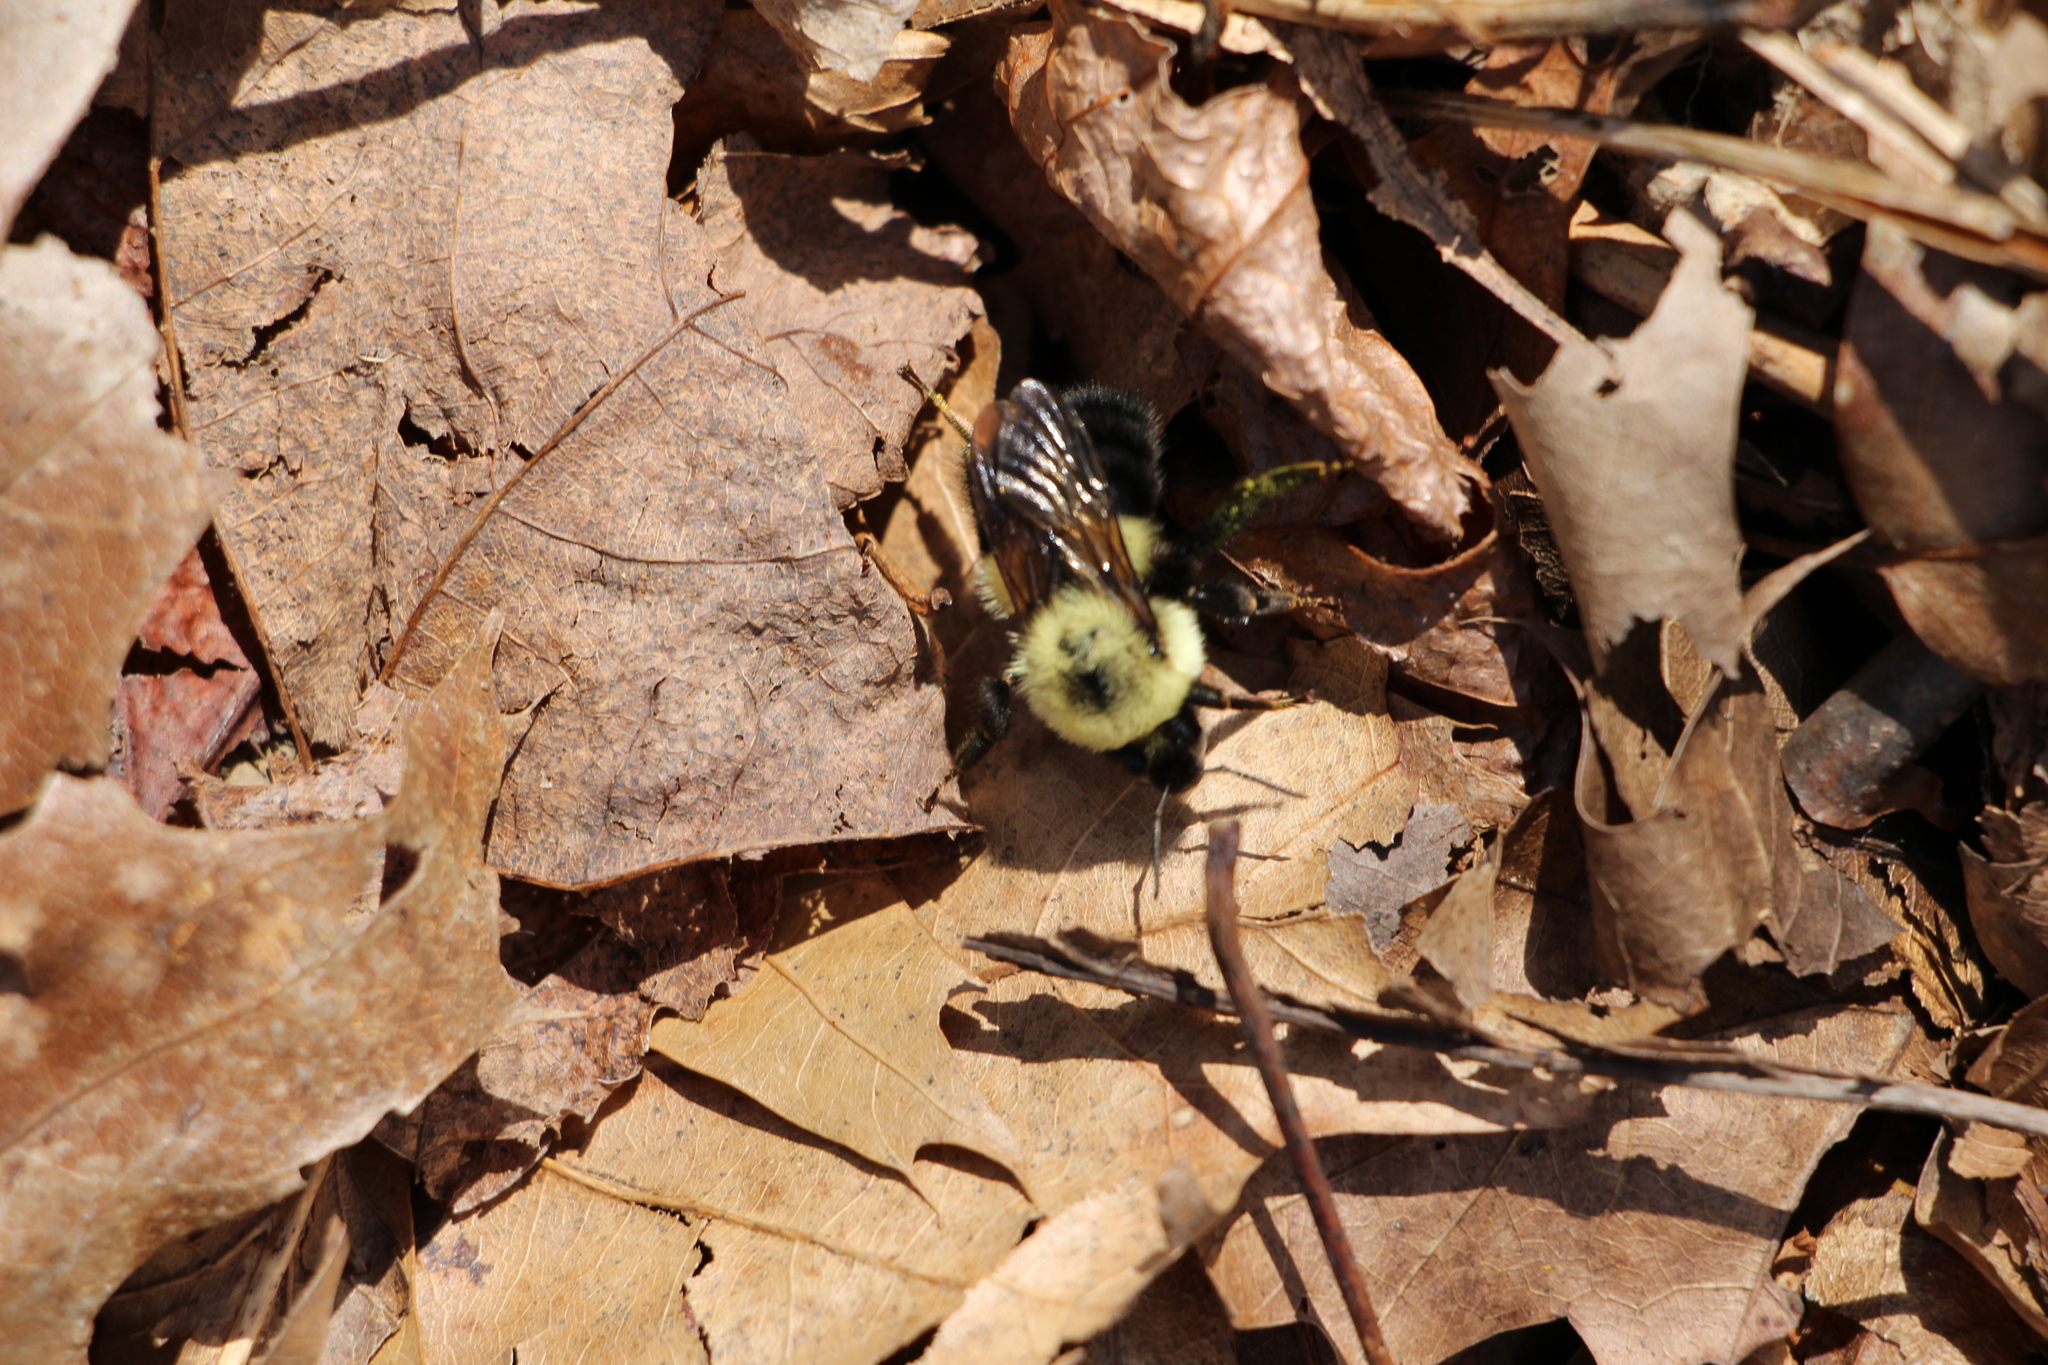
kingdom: Animalia
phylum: Arthropoda
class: Insecta
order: Hymenoptera
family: Apidae
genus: Bombus
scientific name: Bombus bimaculatus
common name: Two-spotted bumble bee
